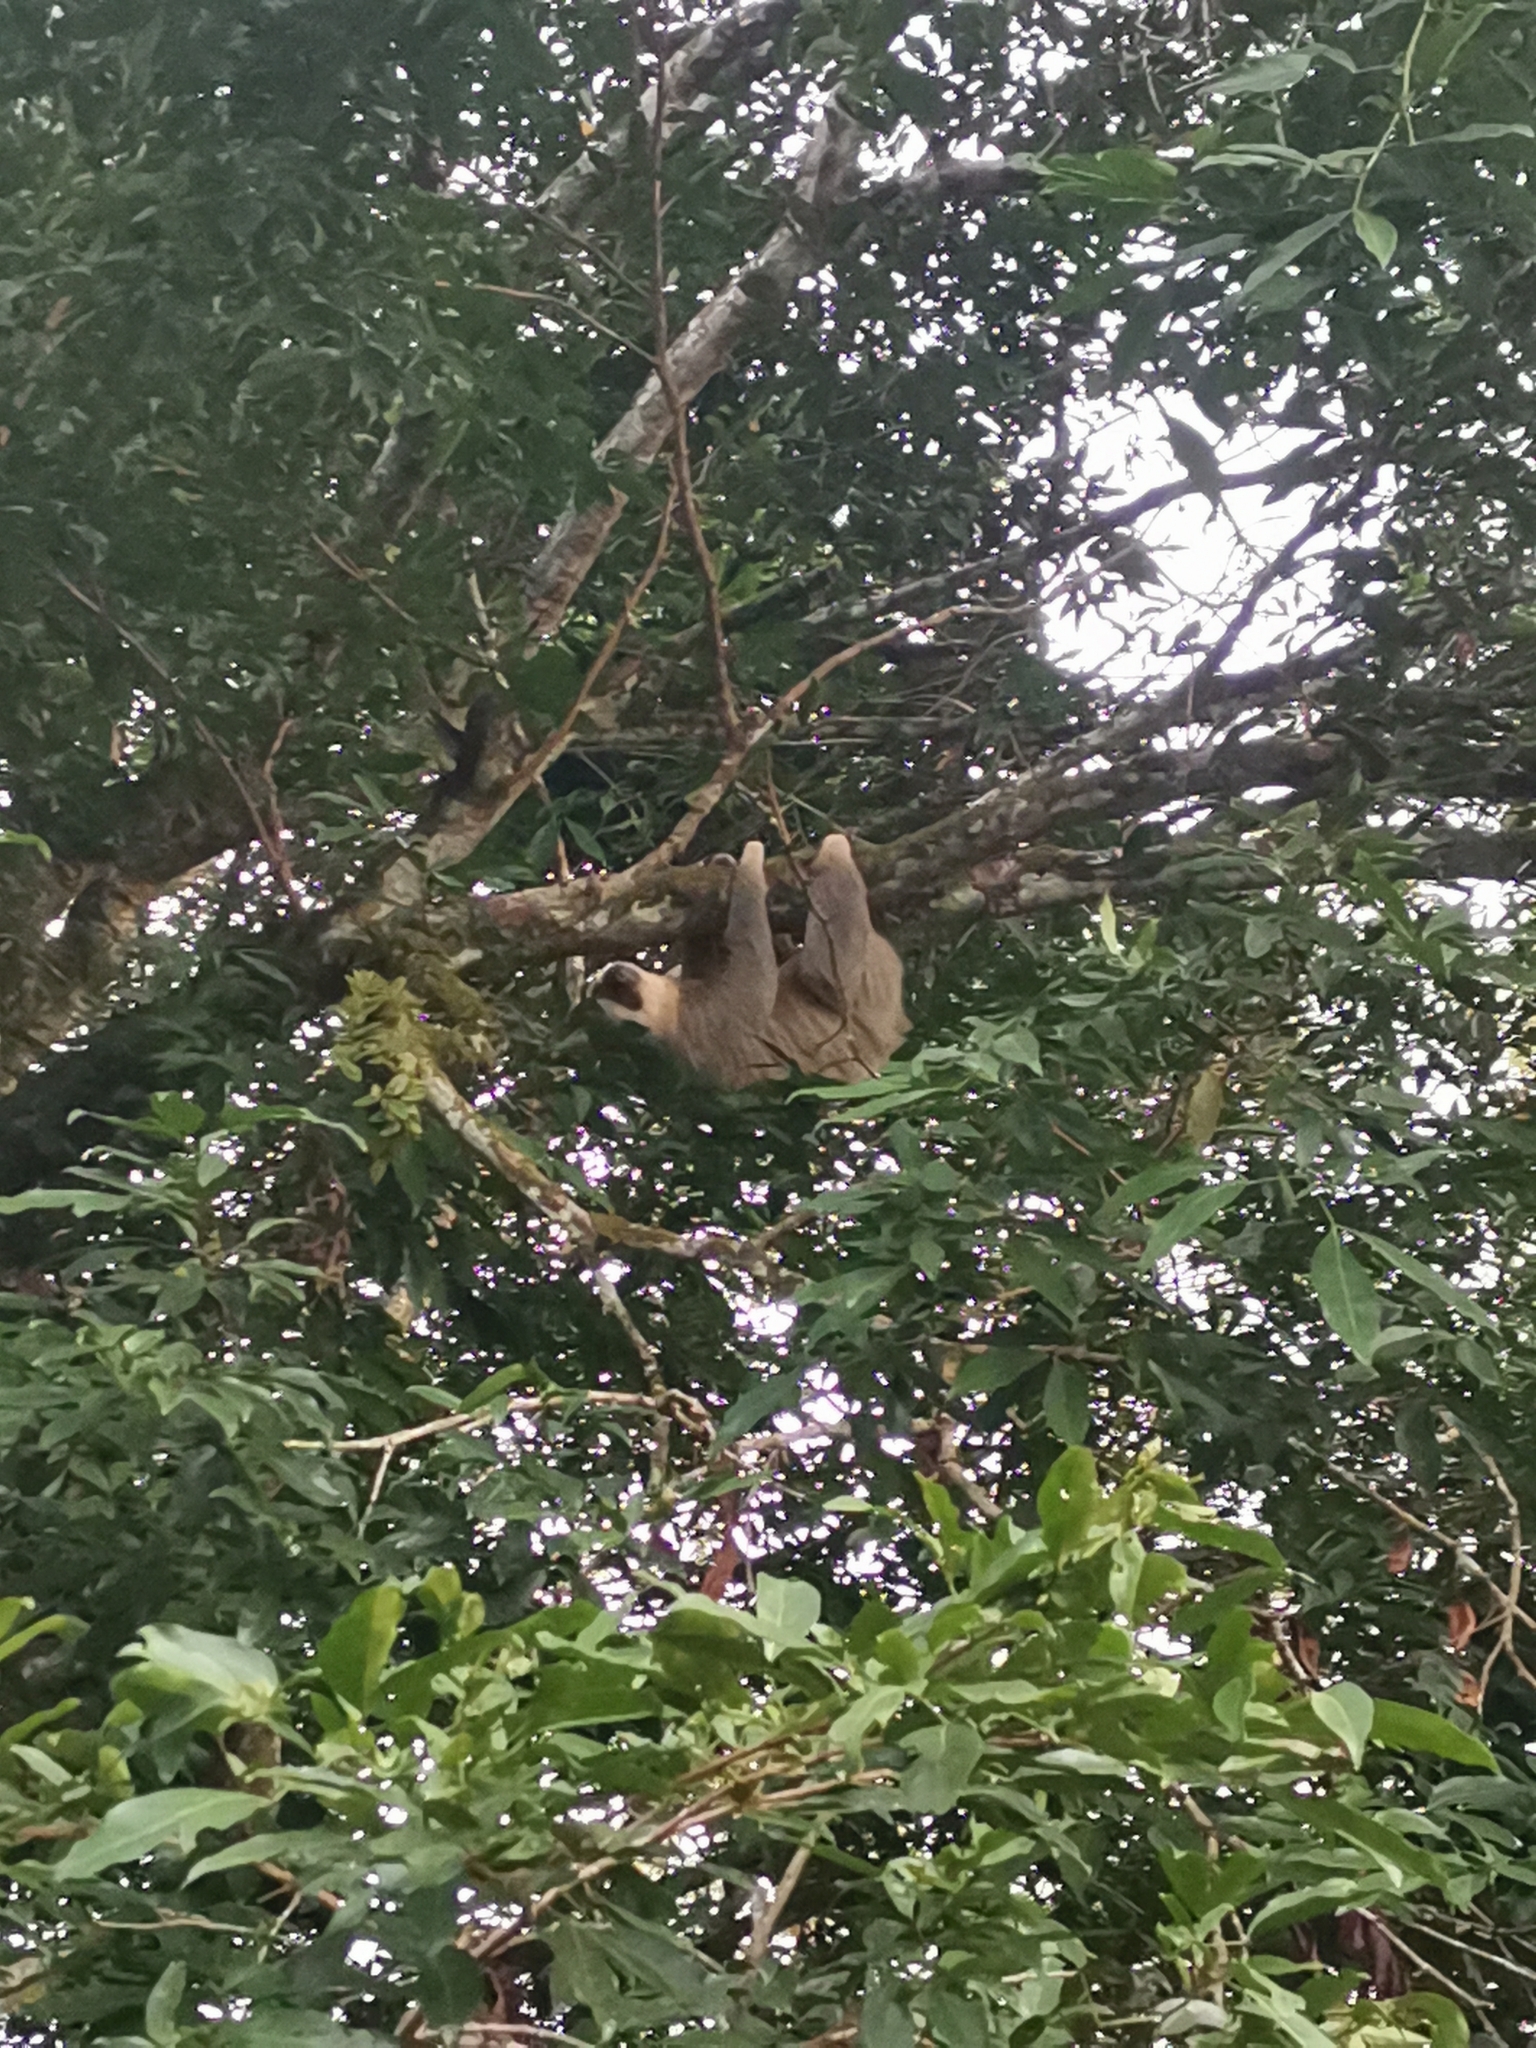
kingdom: Animalia
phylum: Chordata
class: Mammalia
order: Pilosa
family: Megalonychidae
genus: Choloepus
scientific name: Choloepus hoffmanni
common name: Hoffmann's two-toed sloth
